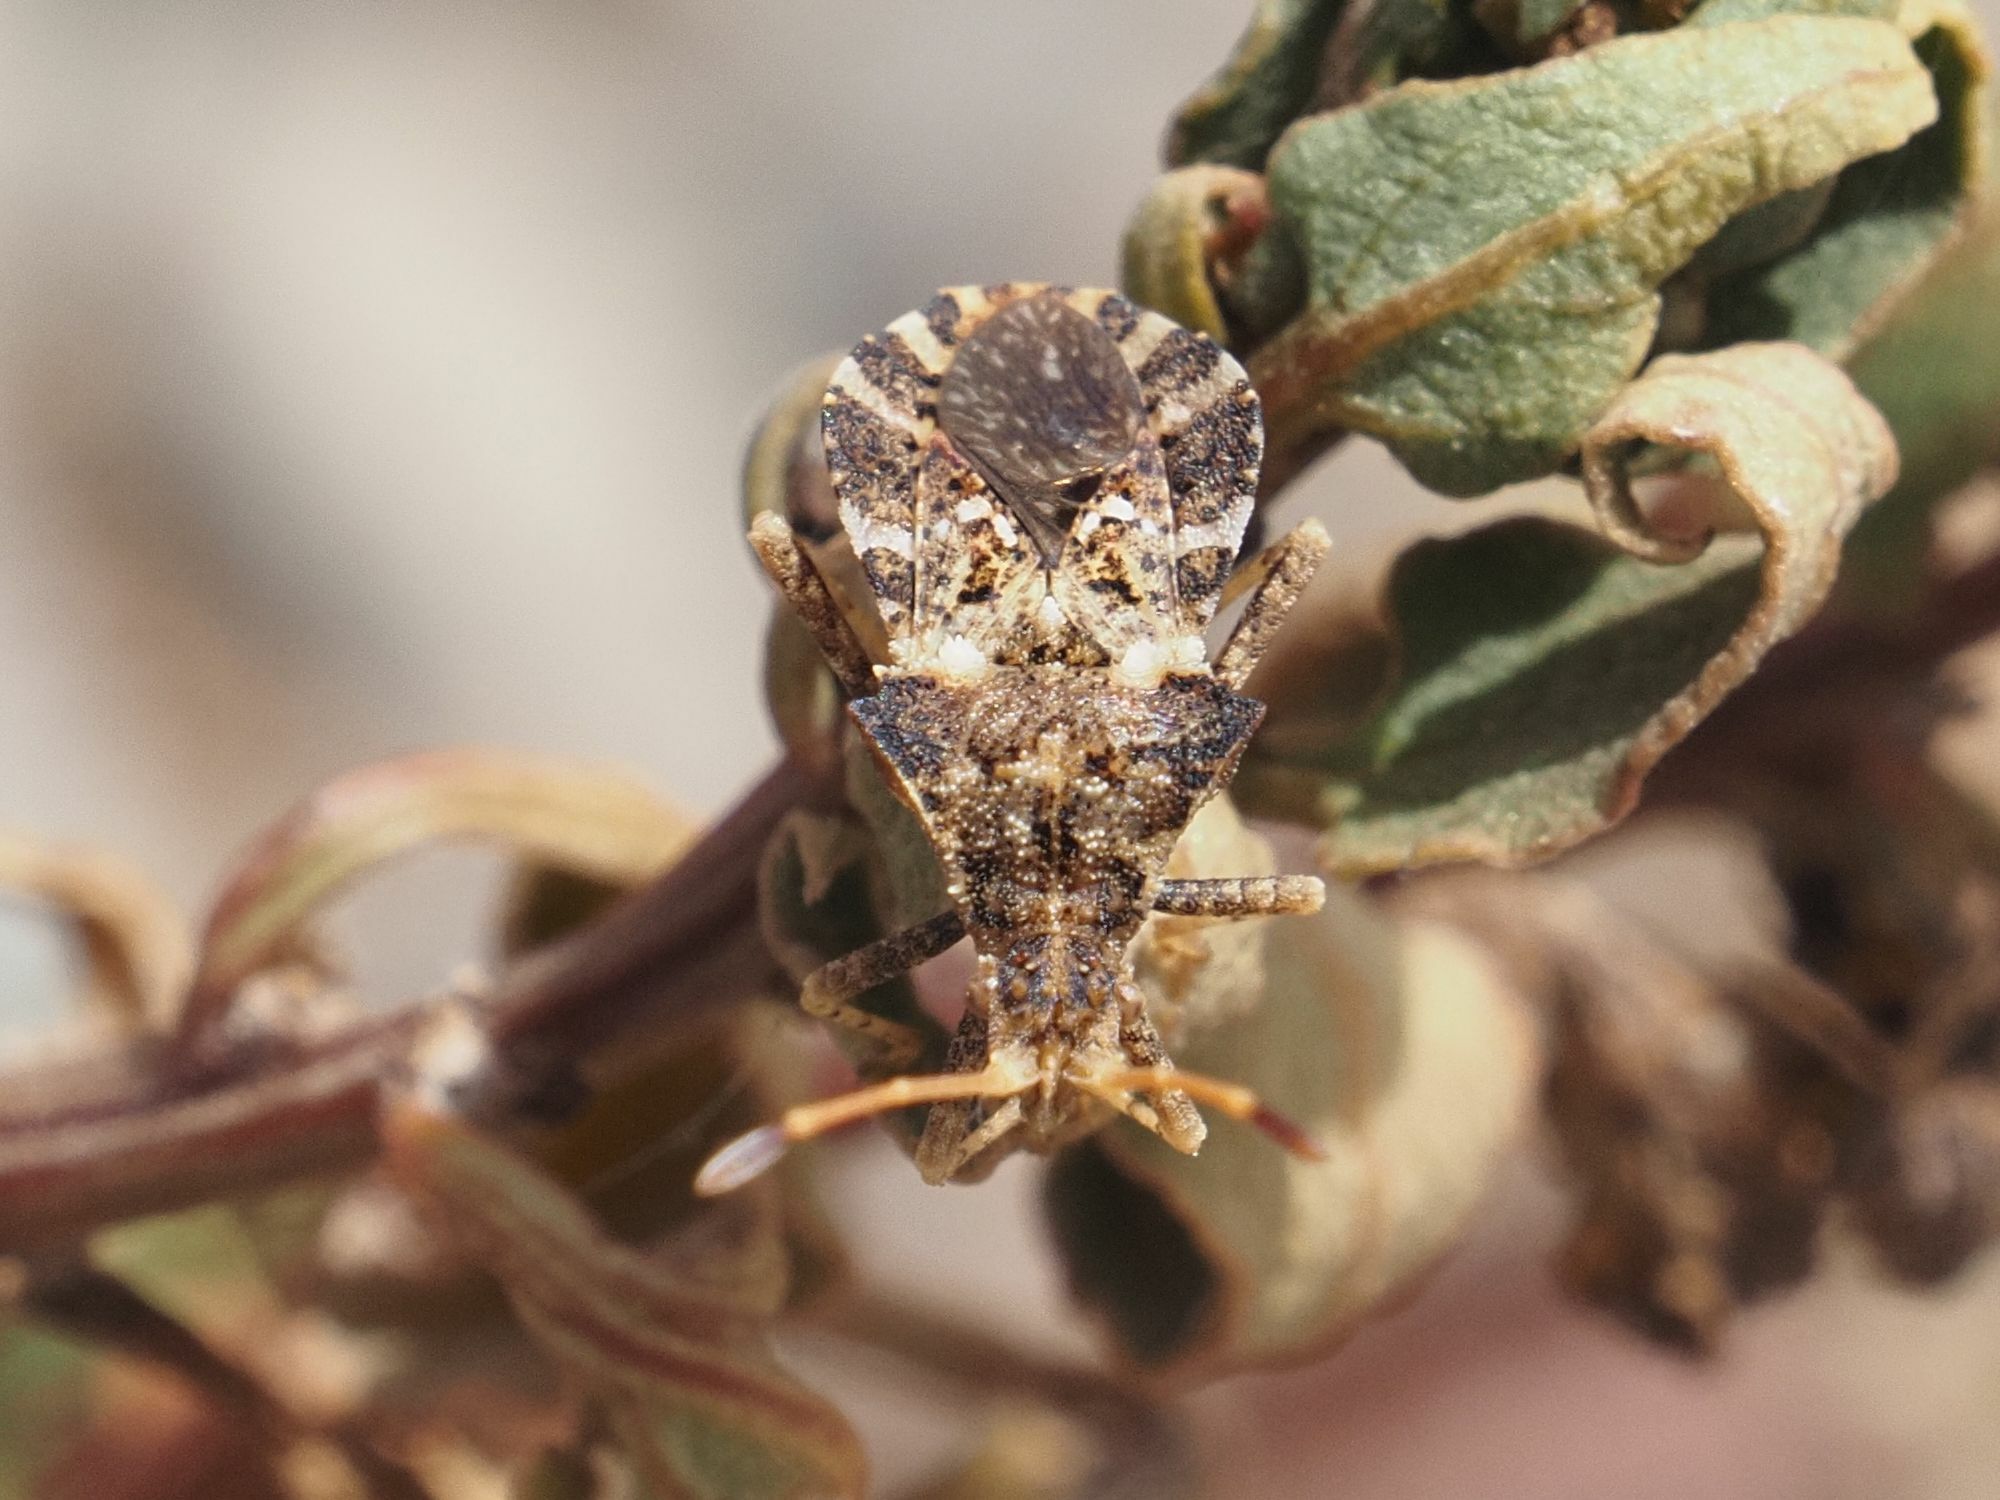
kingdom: Animalia
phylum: Arthropoda
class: Insecta
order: Hemiptera
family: Coreidae
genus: Centrocoris
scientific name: Centrocoris variegatus
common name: Leaf-footed bug
